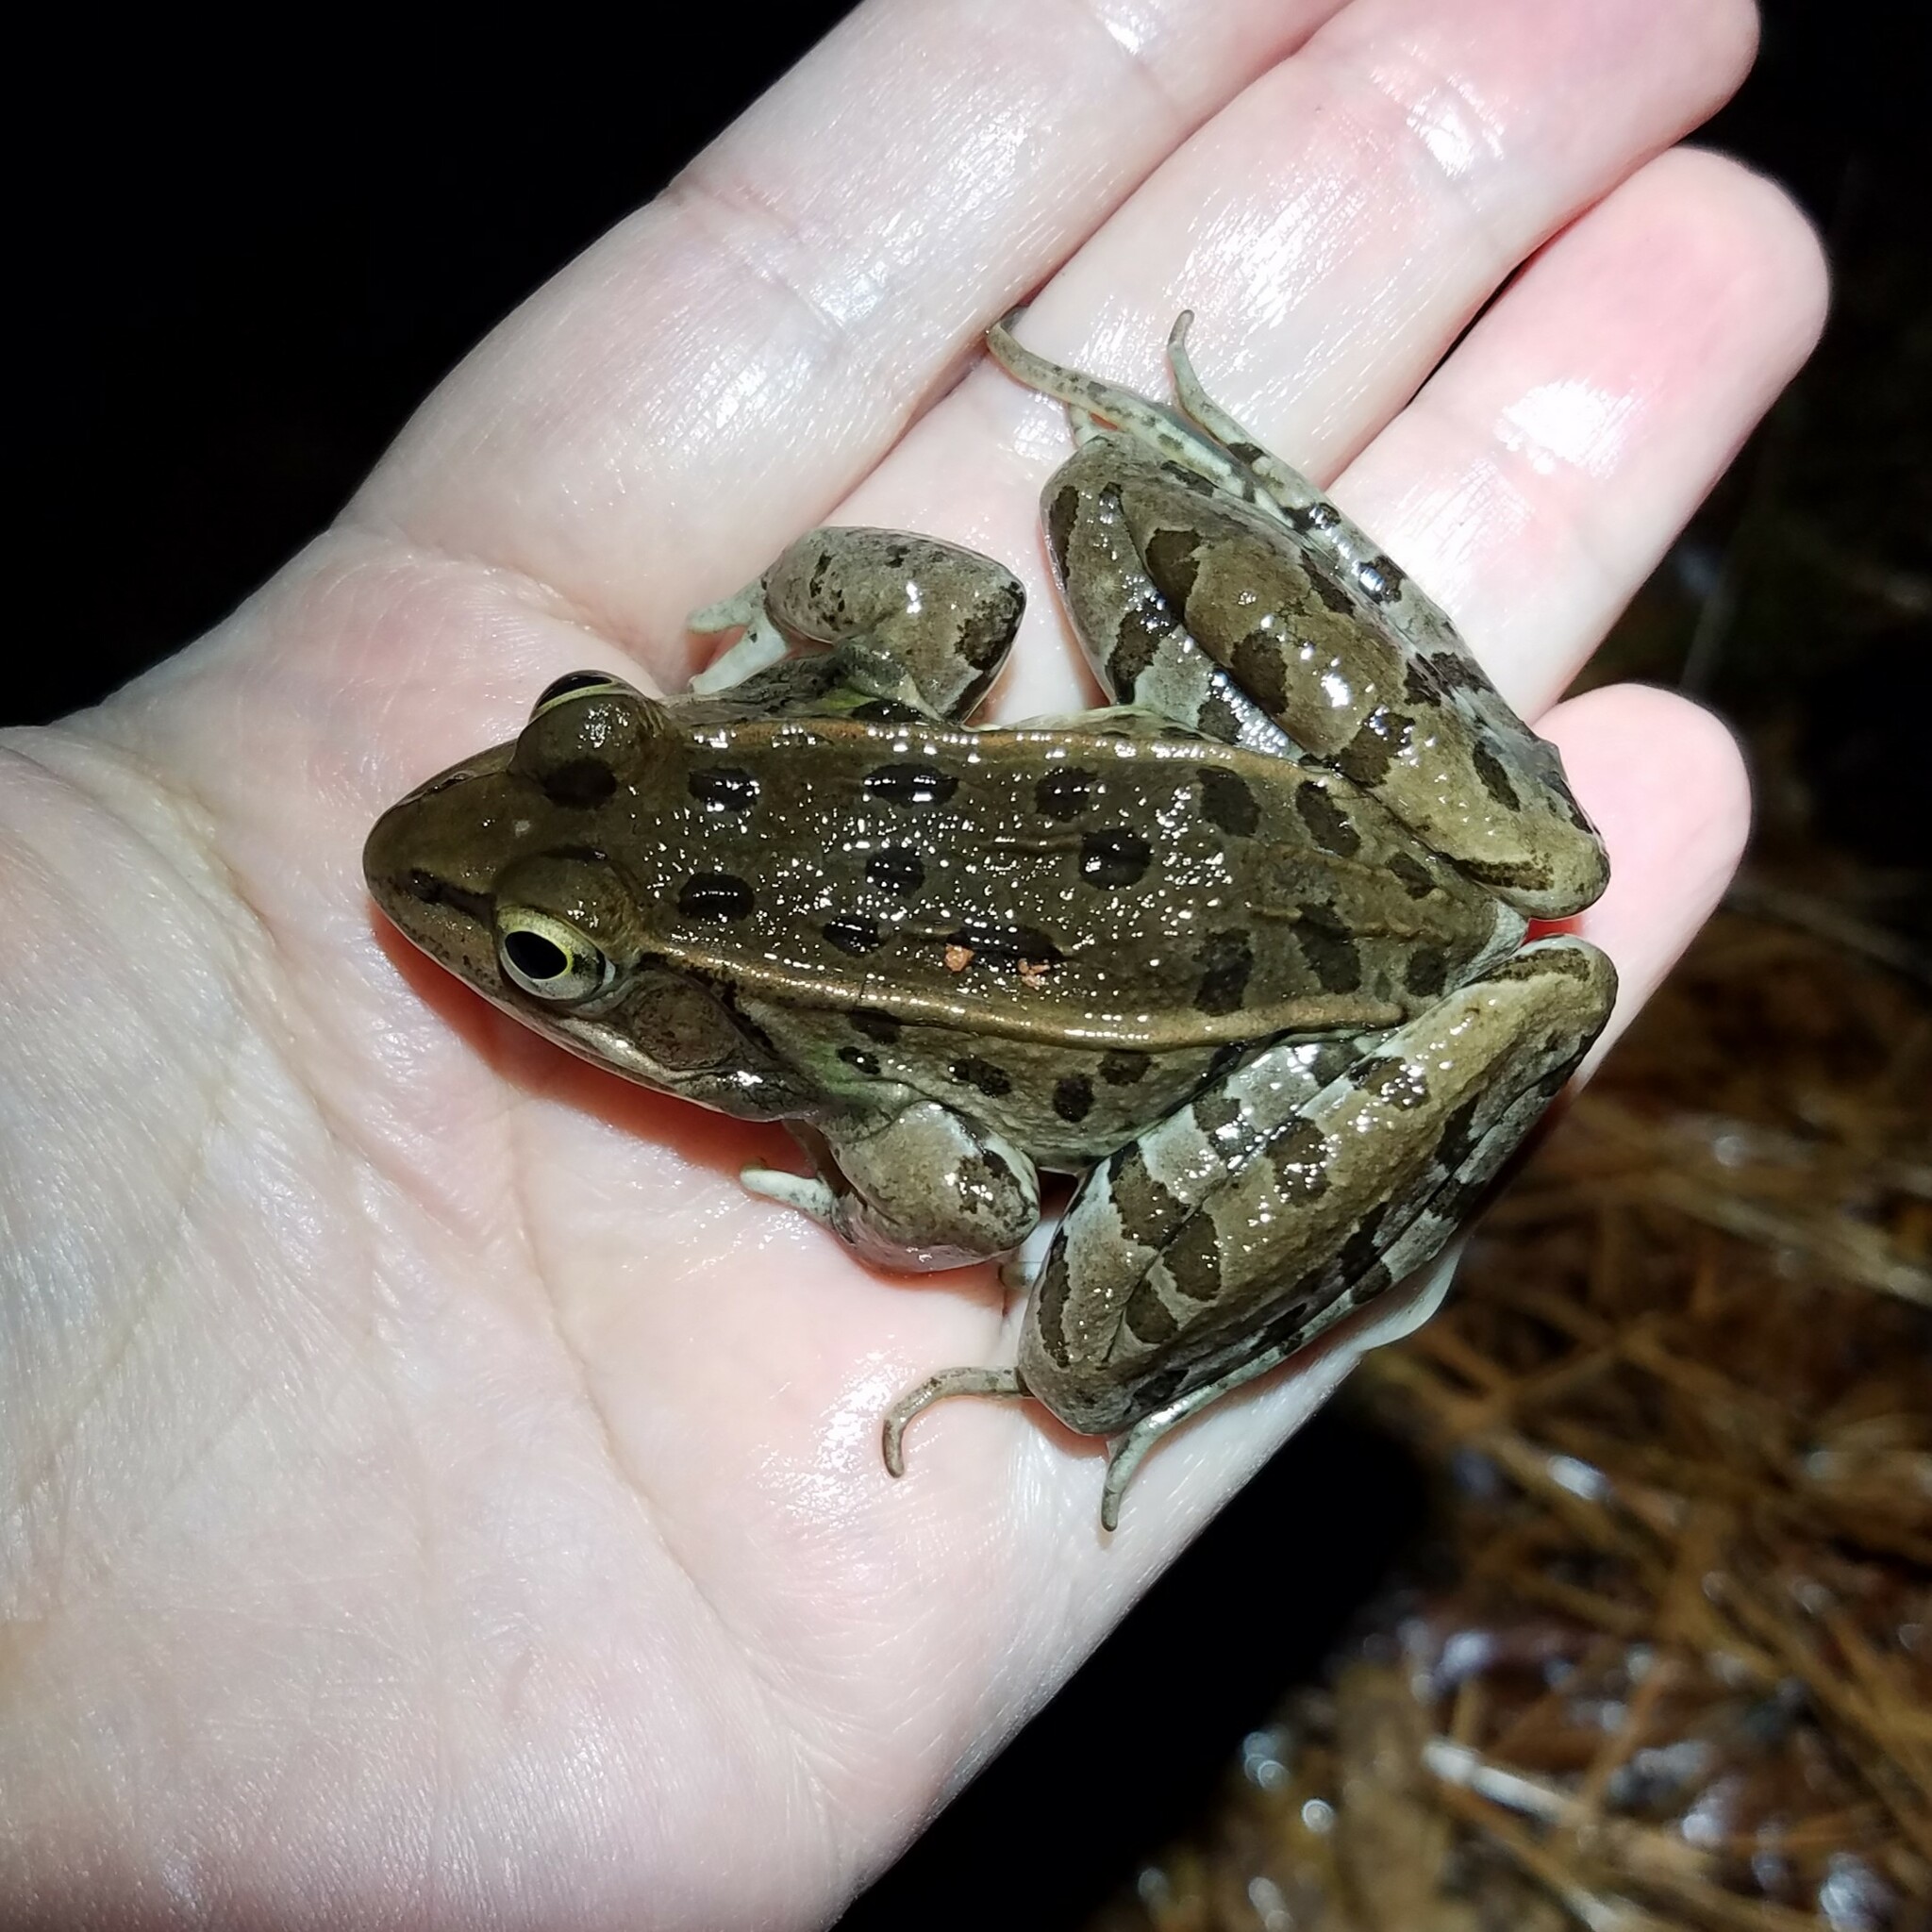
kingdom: Animalia
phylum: Chordata
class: Amphibia
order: Anura
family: Ranidae
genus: Lithobates
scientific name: Lithobates sphenocephalus
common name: Southern leopard frog
